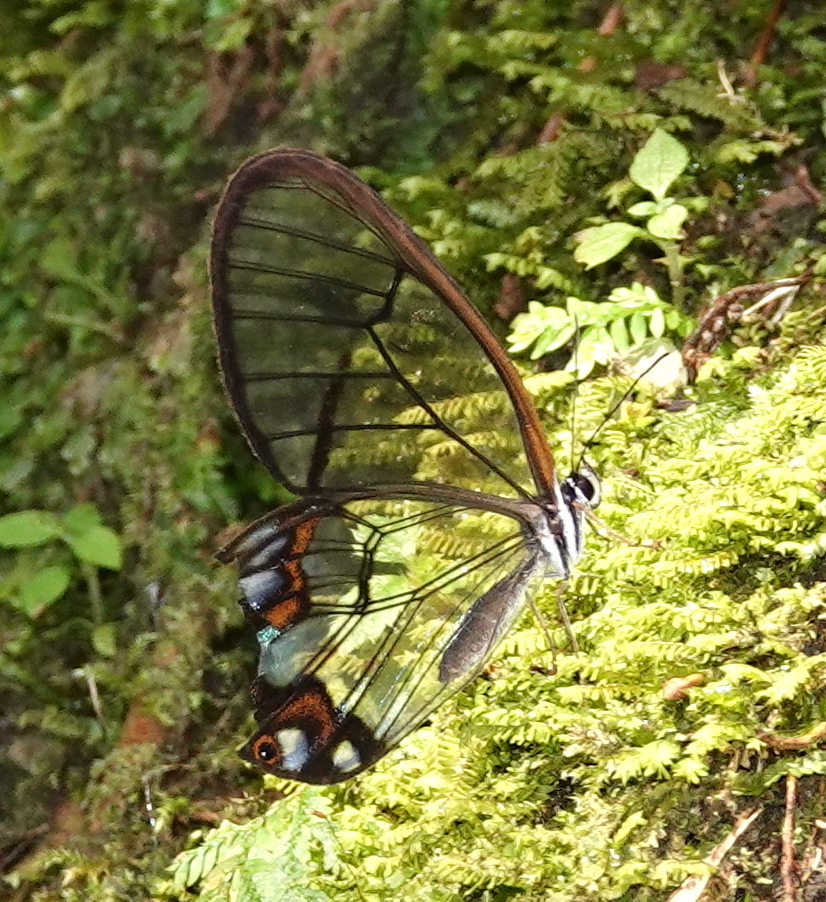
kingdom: Animalia
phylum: Arthropoda
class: Insecta
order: Lepidoptera
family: Nymphalidae
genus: Pseudohaetera
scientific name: Pseudohaetera hypaesia
